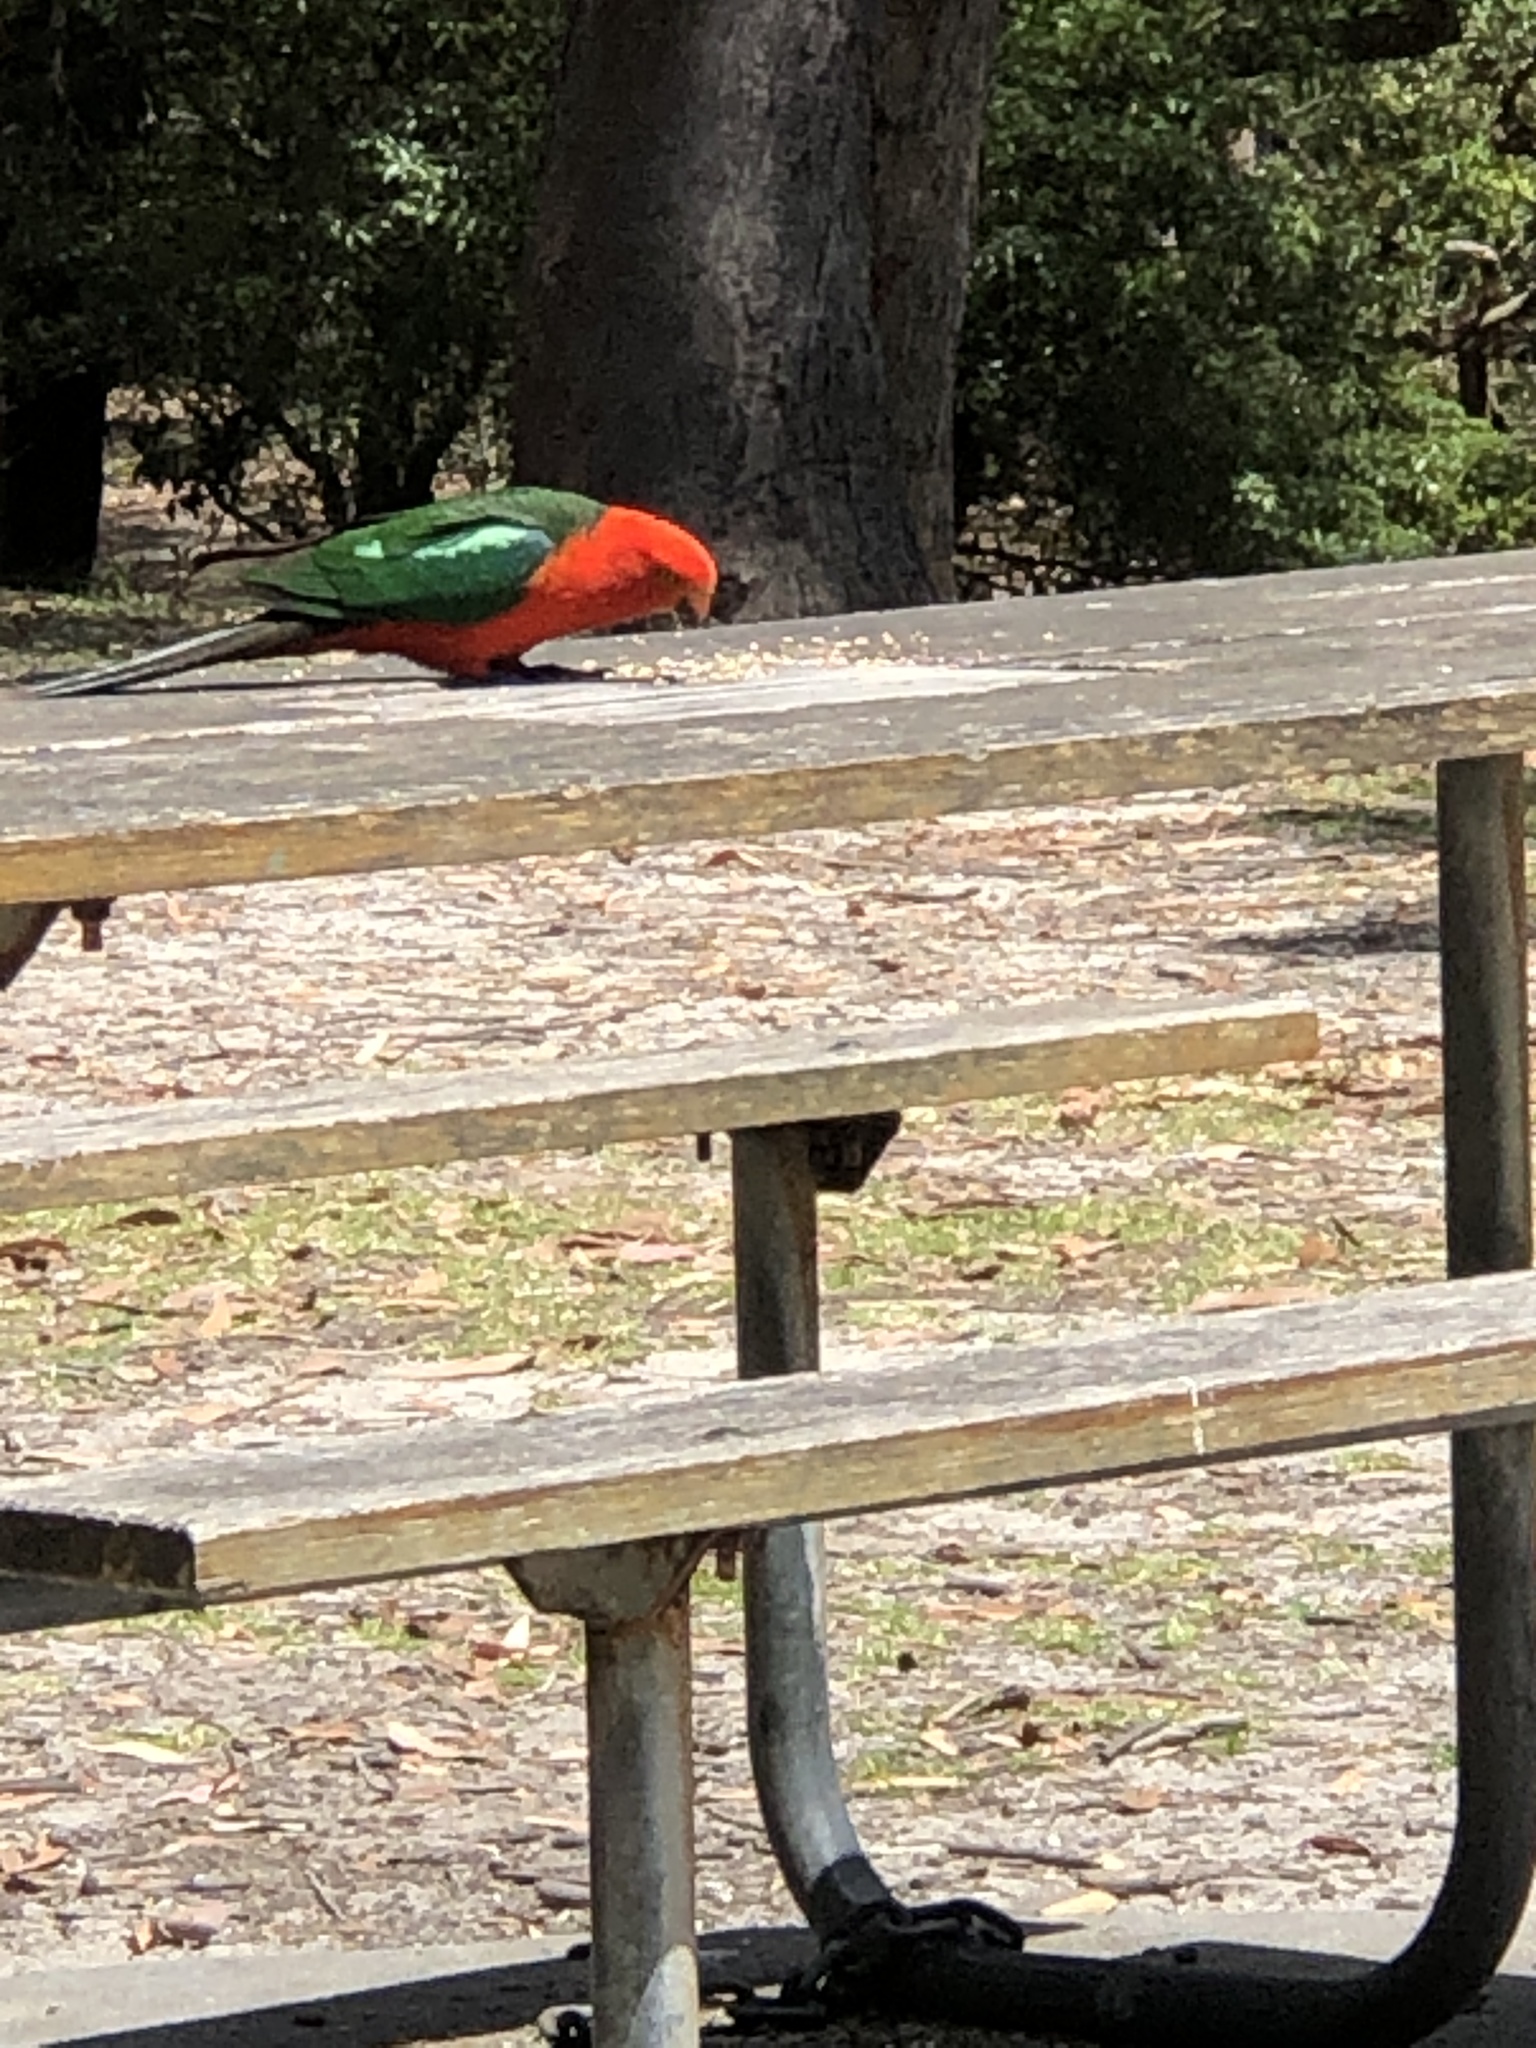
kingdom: Animalia
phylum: Chordata
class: Aves
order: Psittaciformes
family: Psittacidae
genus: Alisterus
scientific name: Alisterus scapularis
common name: Australian king parrot
